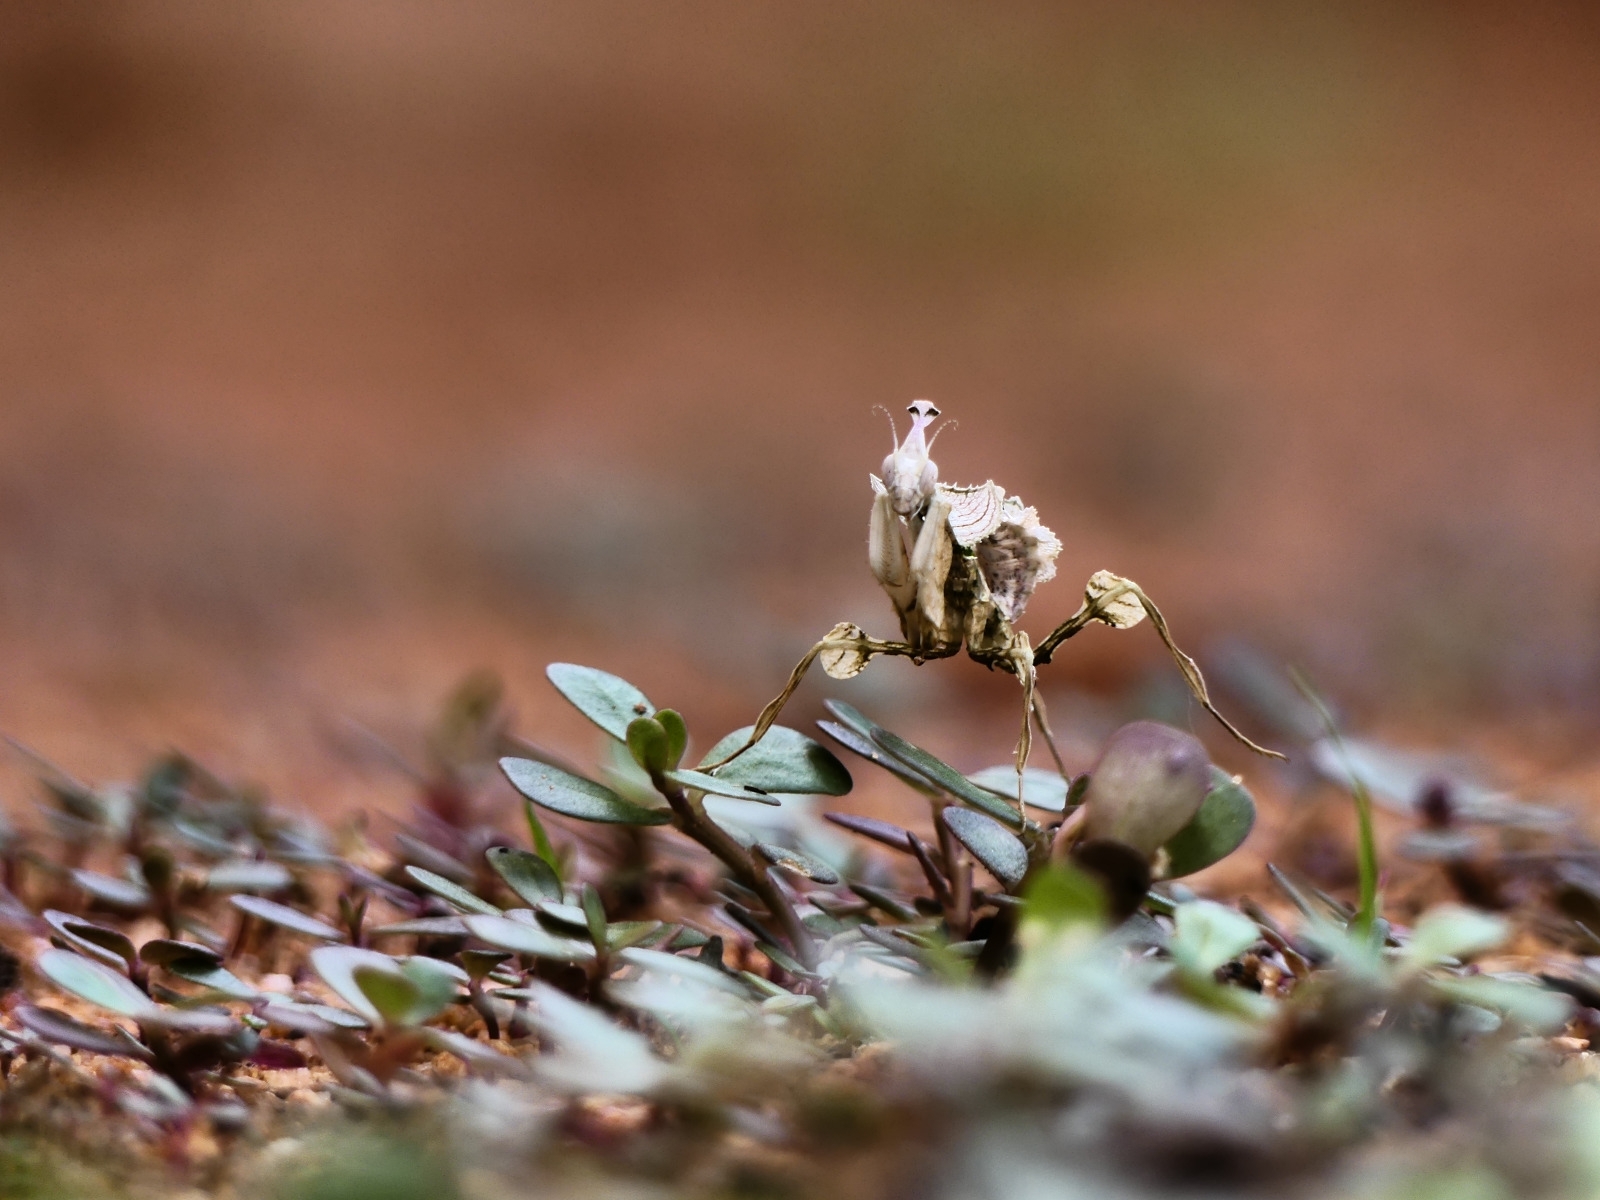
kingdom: Animalia
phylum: Arthropoda
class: Insecta
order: Mantodea
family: Empusidae
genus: Idolomantis
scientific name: Idolomantis diabolica
